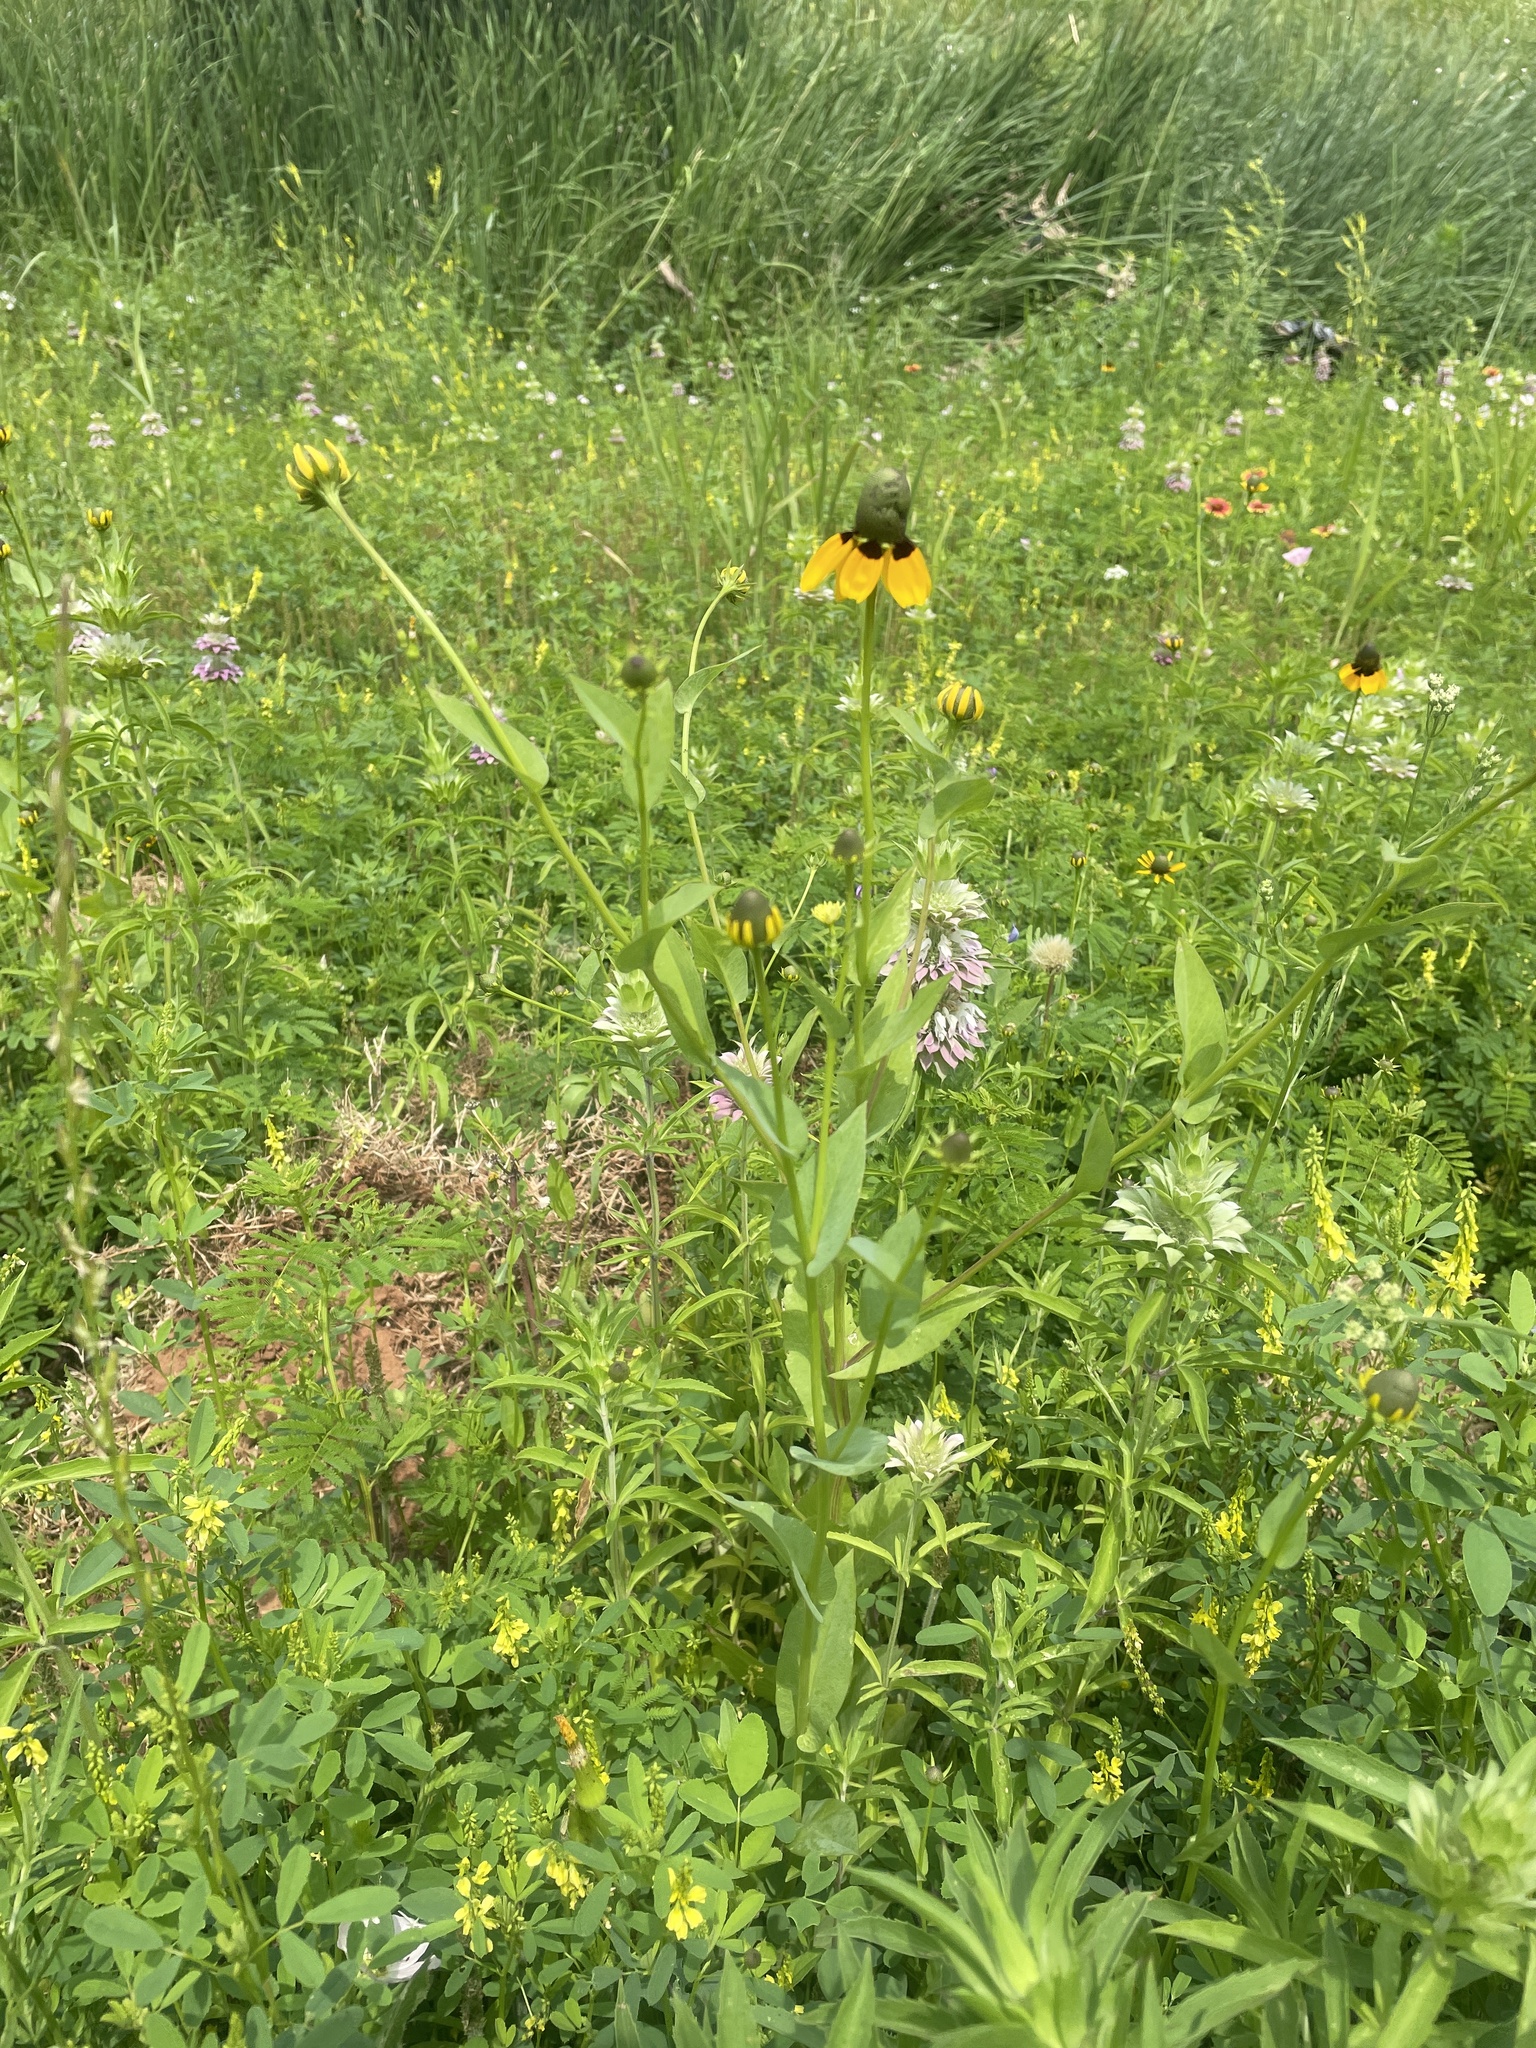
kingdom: Plantae
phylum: Tracheophyta
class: Magnoliopsida
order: Asterales
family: Asteraceae
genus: Rudbeckia
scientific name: Rudbeckia amplexicaulis
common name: Clasping-leaf coneflower
